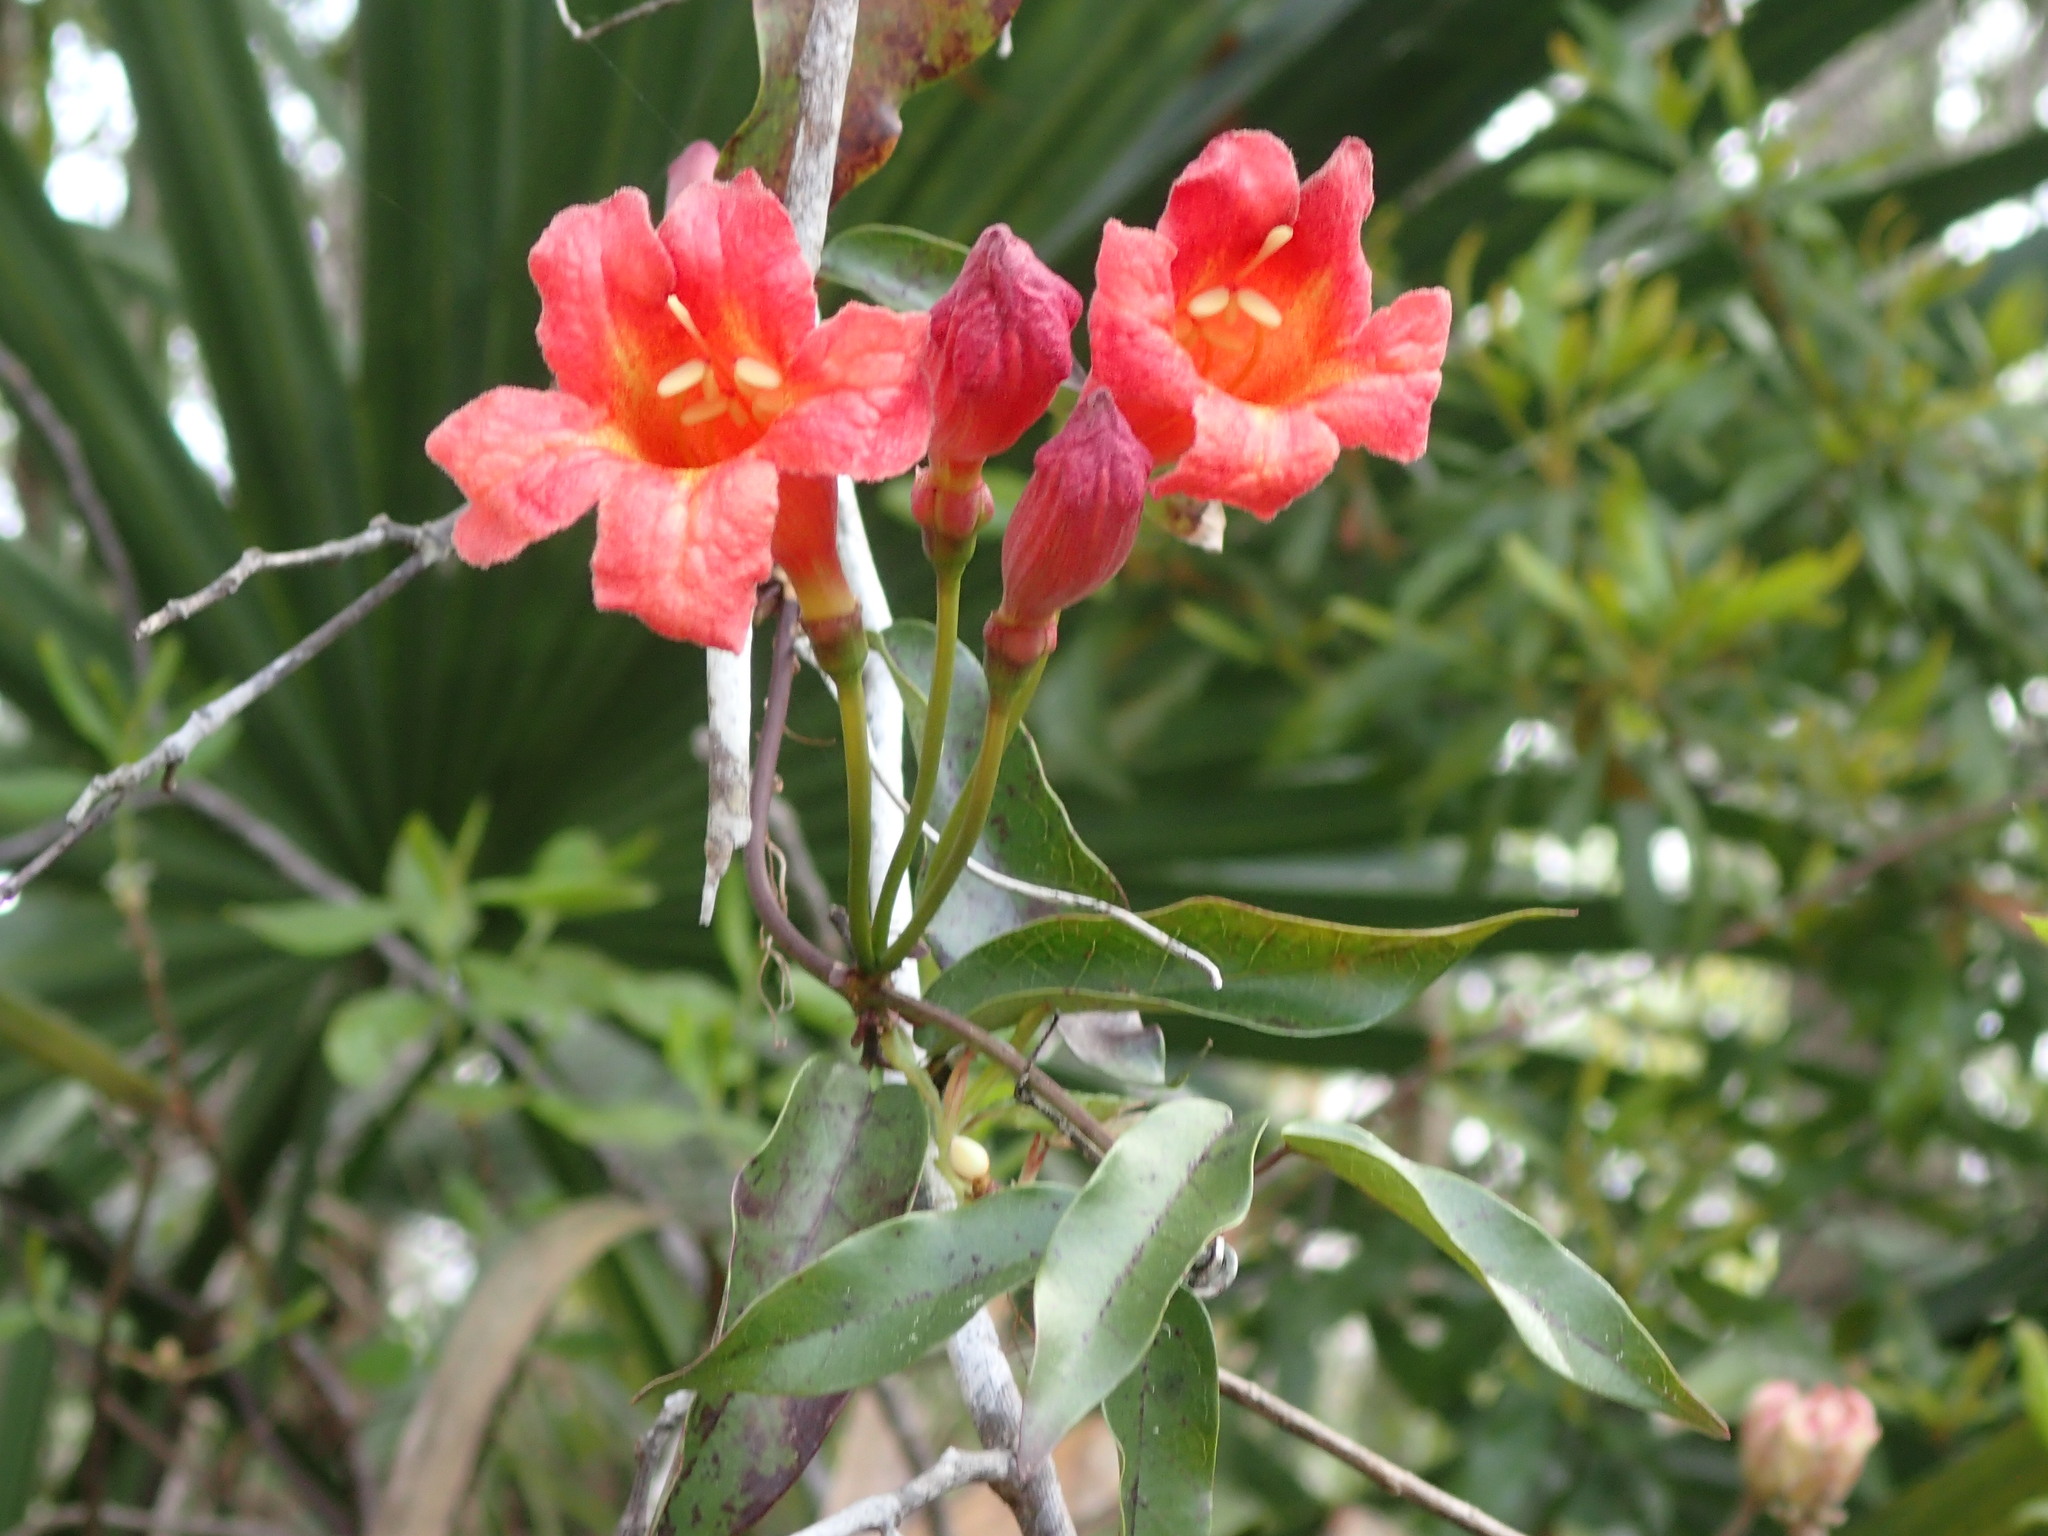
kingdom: Plantae
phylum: Tracheophyta
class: Magnoliopsida
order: Lamiales
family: Bignoniaceae
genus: Bignonia
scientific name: Bignonia capreolata
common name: Crossvine
